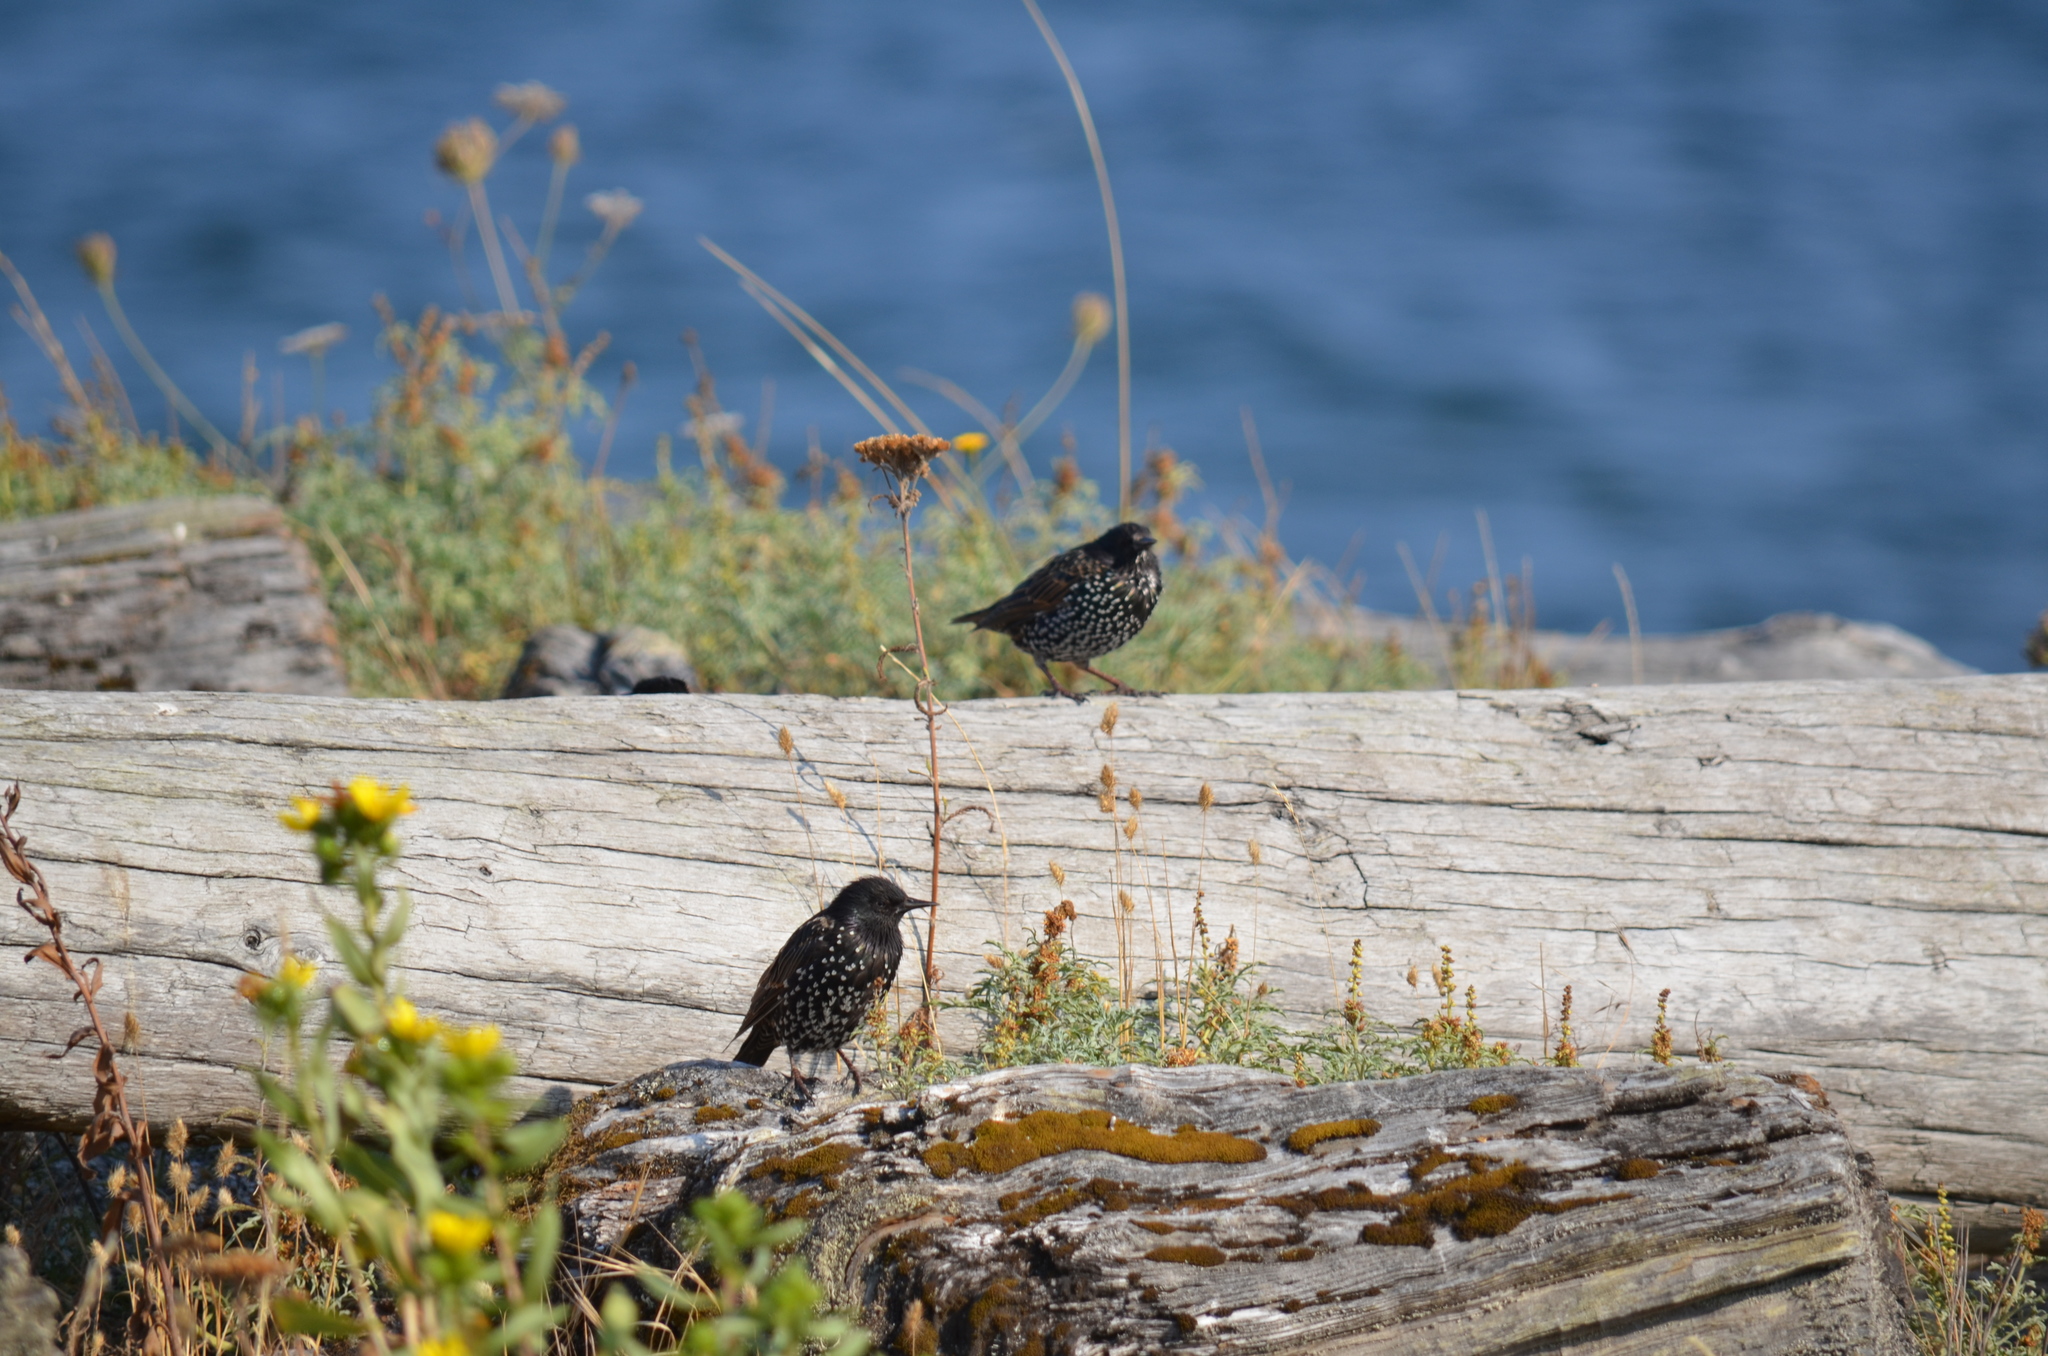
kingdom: Animalia
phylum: Chordata
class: Aves
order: Passeriformes
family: Sturnidae
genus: Sturnus
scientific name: Sturnus vulgaris
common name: Common starling
